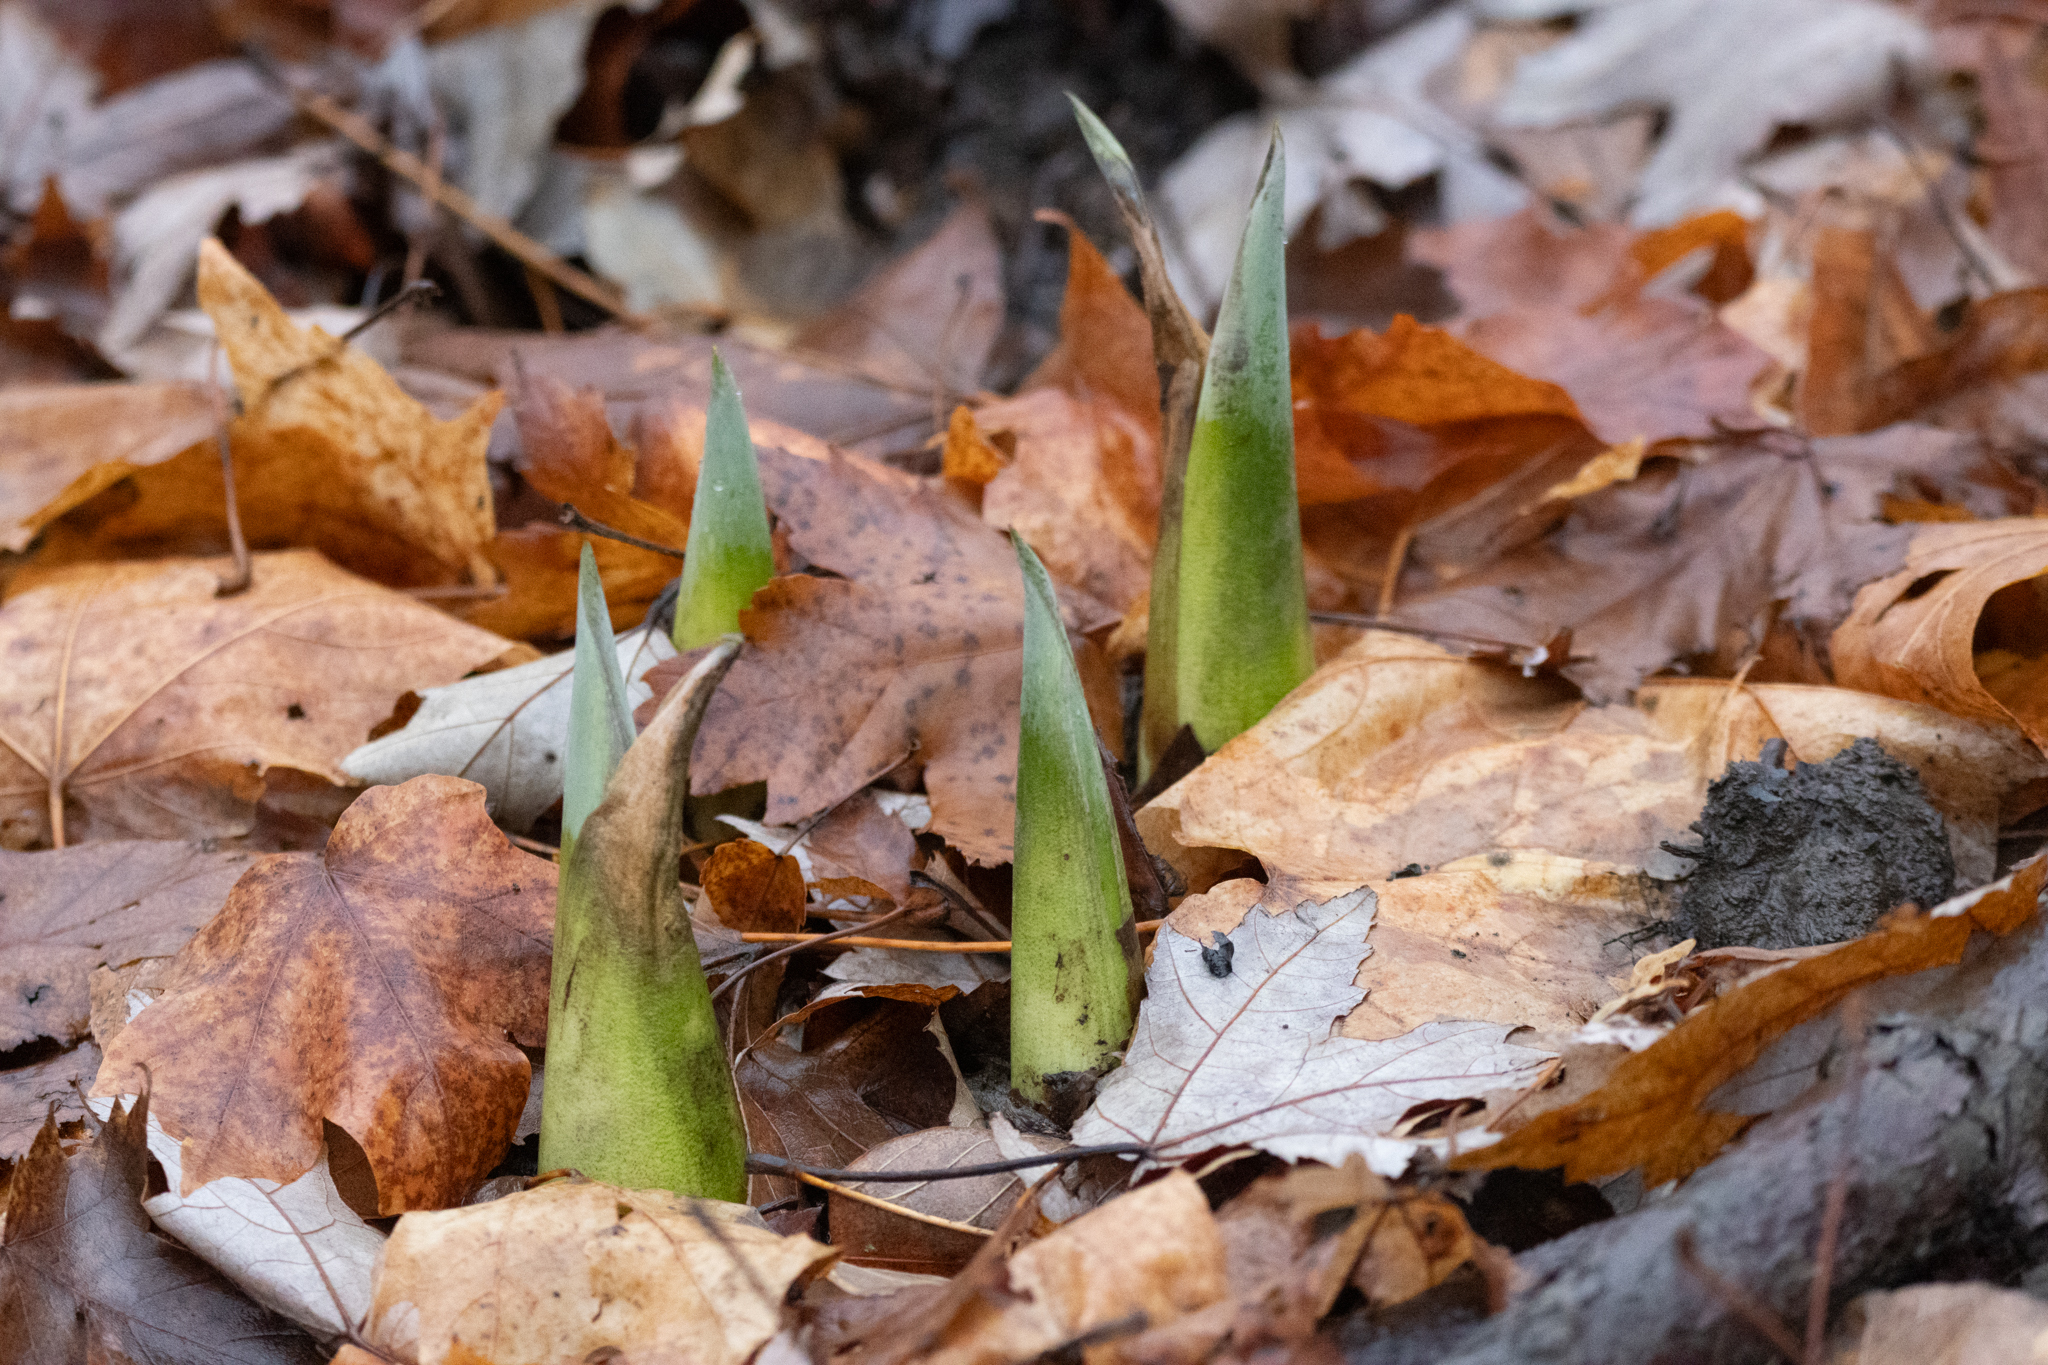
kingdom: Plantae
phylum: Tracheophyta
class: Liliopsida
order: Alismatales
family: Araceae
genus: Symplocarpus
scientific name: Symplocarpus foetidus
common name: Eastern skunk cabbage
